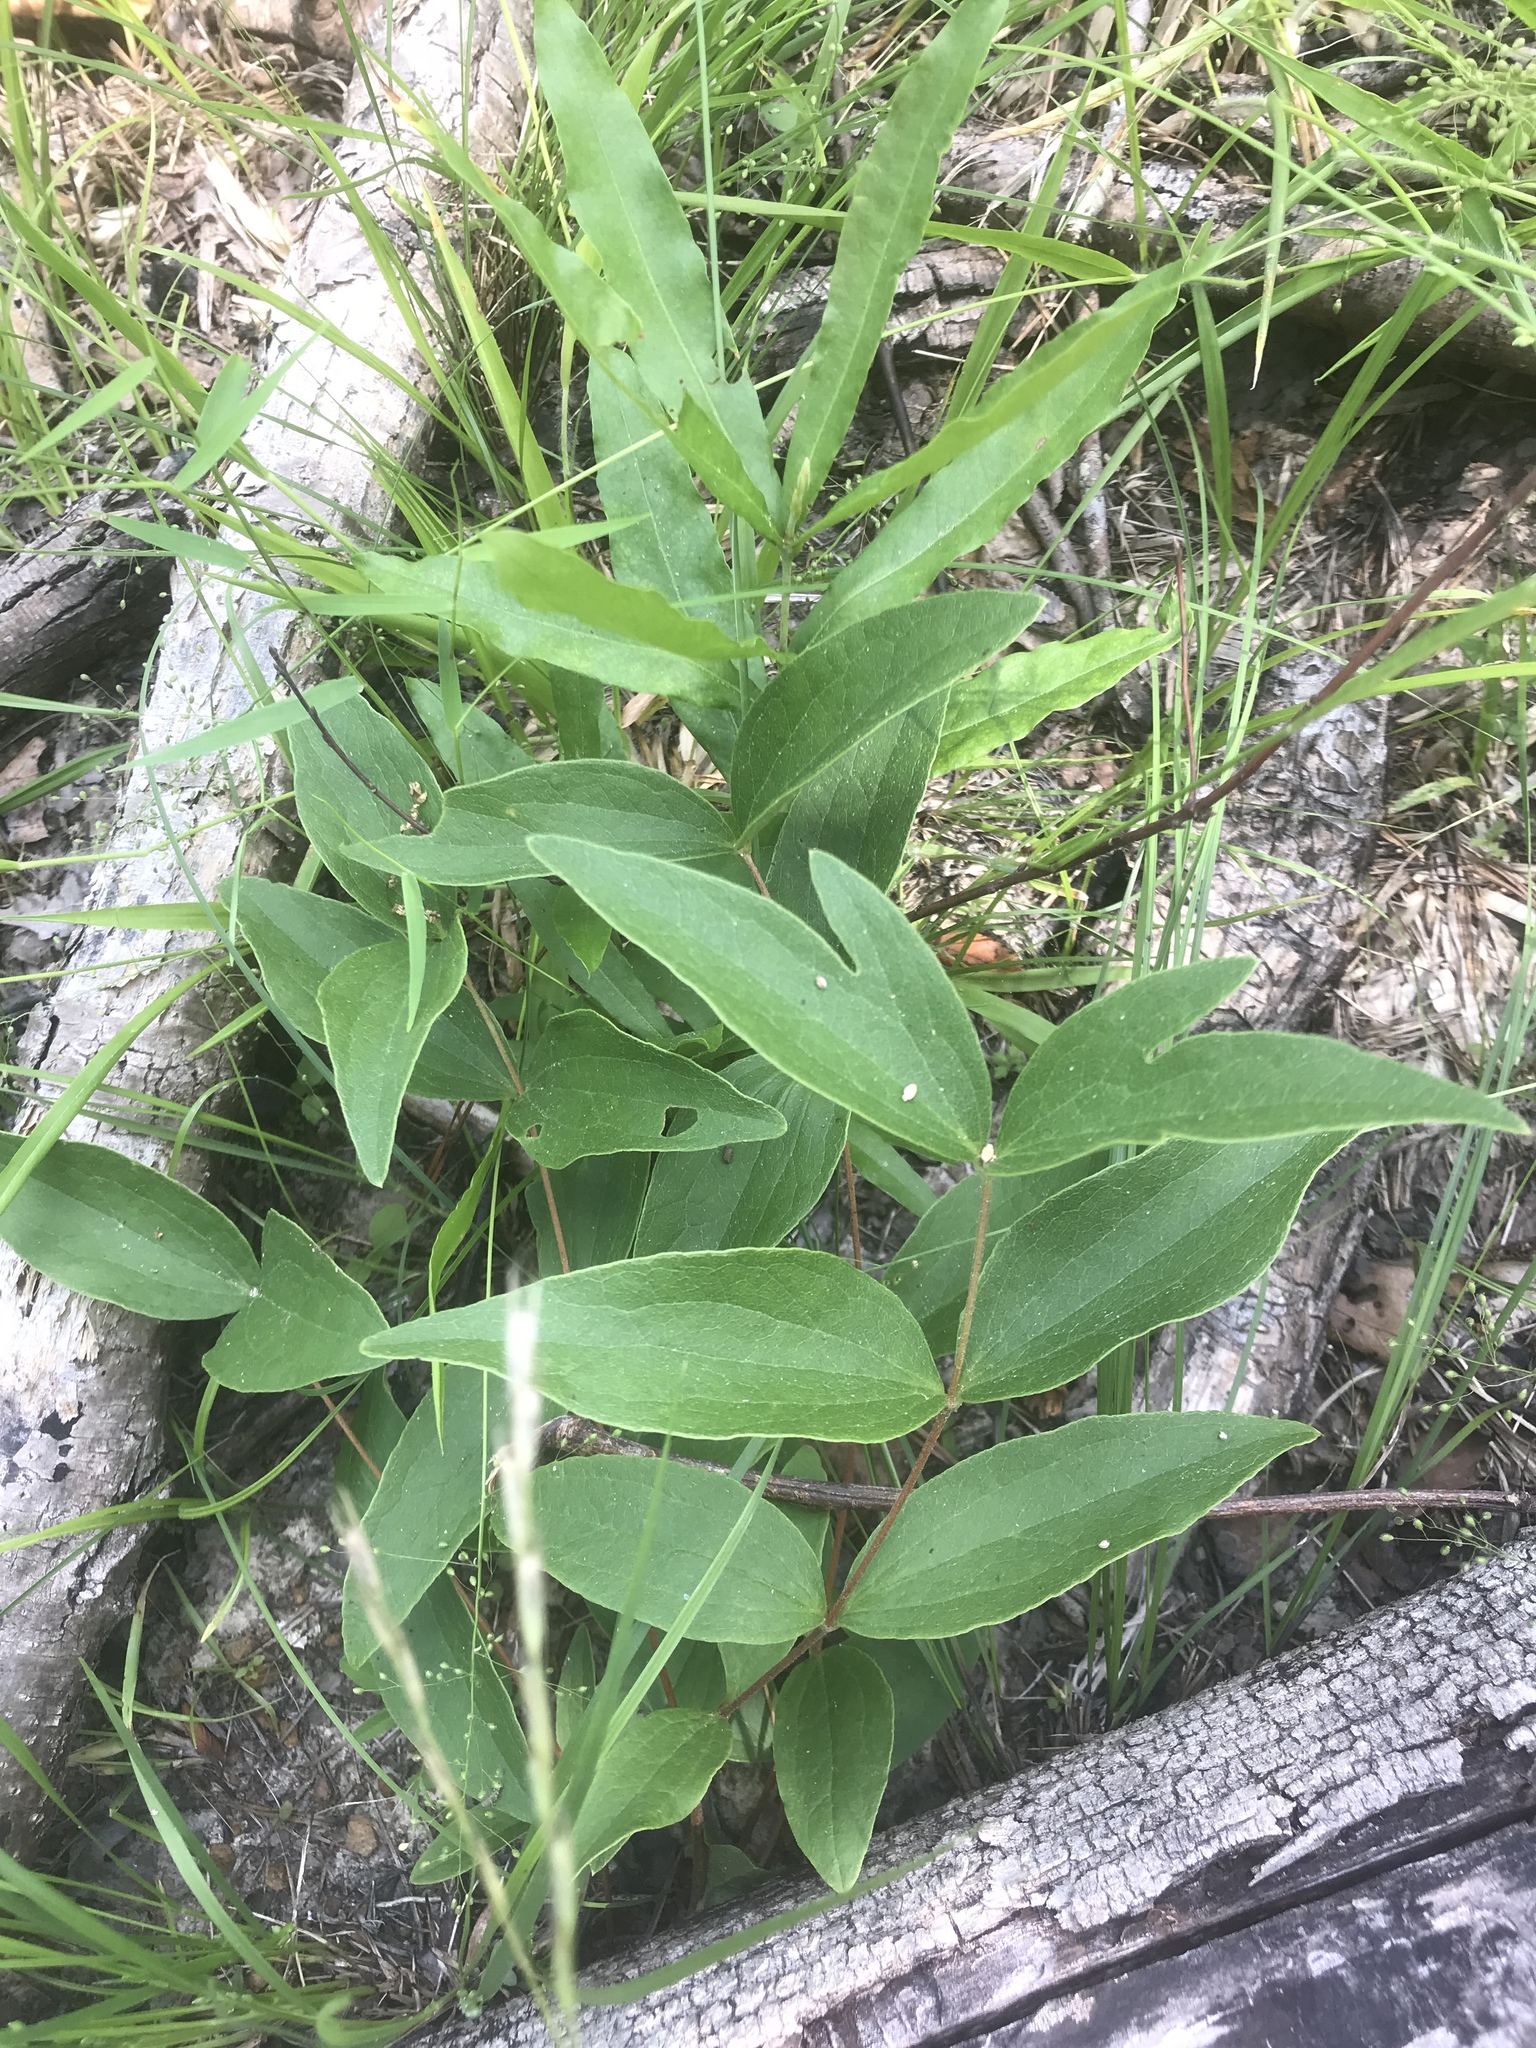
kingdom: Plantae
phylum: Tracheophyta
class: Magnoliopsida
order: Ranunculales
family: Ranunculaceae
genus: Clematis
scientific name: Clematis ochroleuca
